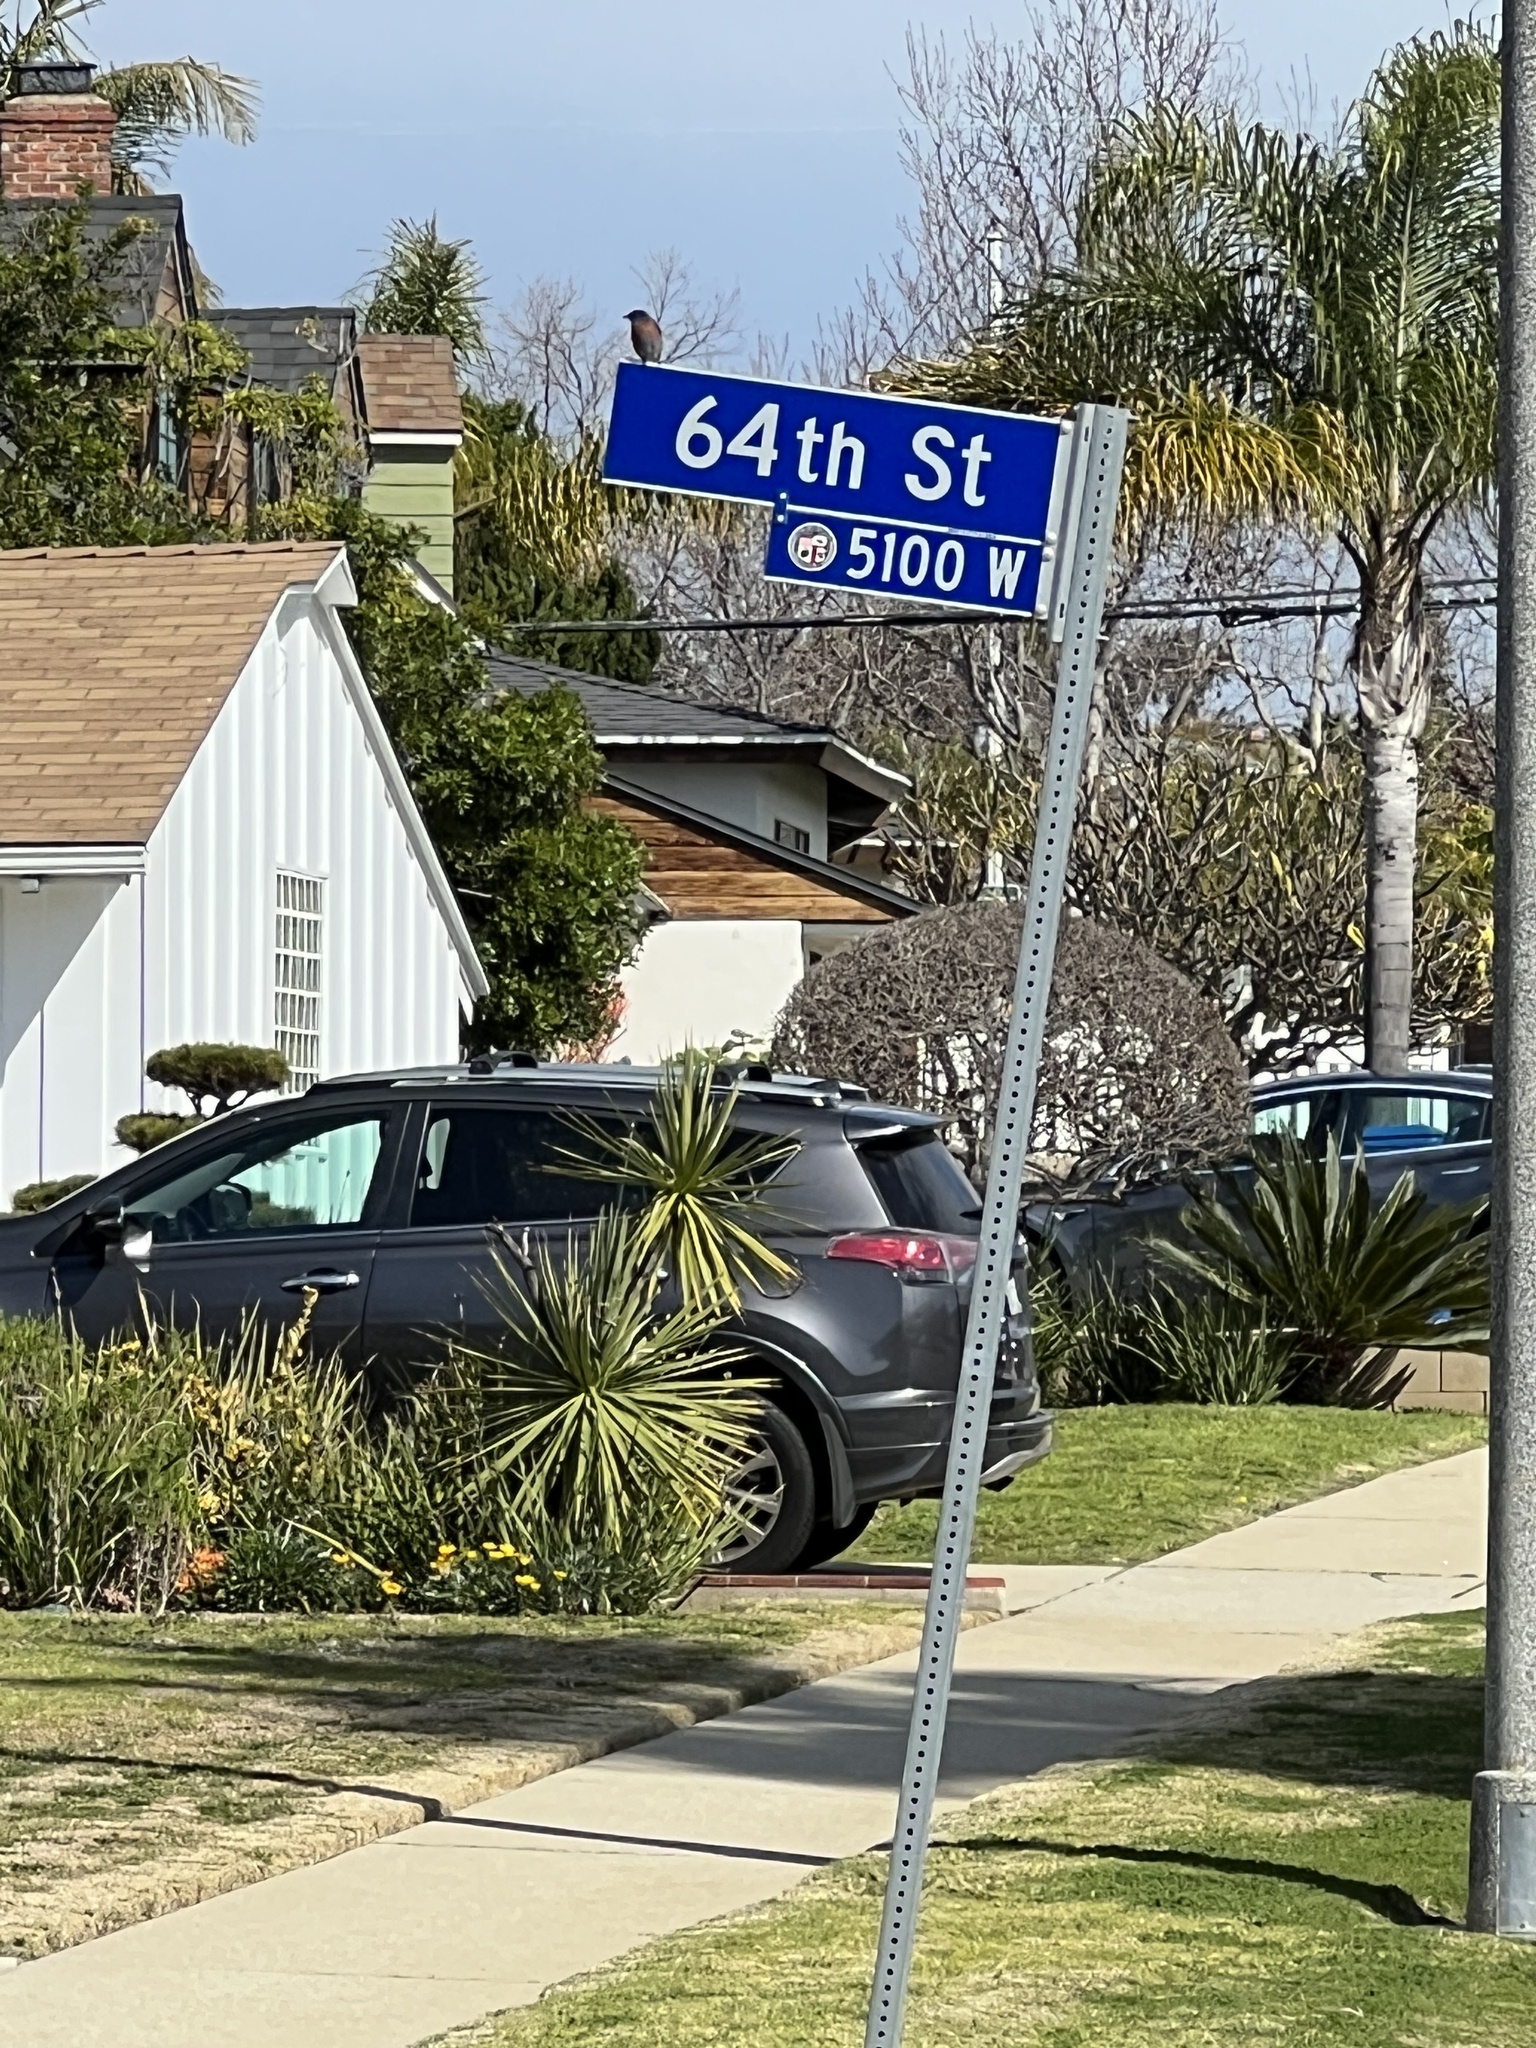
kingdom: Animalia
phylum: Chordata
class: Aves
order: Passeriformes
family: Turdidae
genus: Sialia
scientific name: Sialia mexicana
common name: Western bluebird
